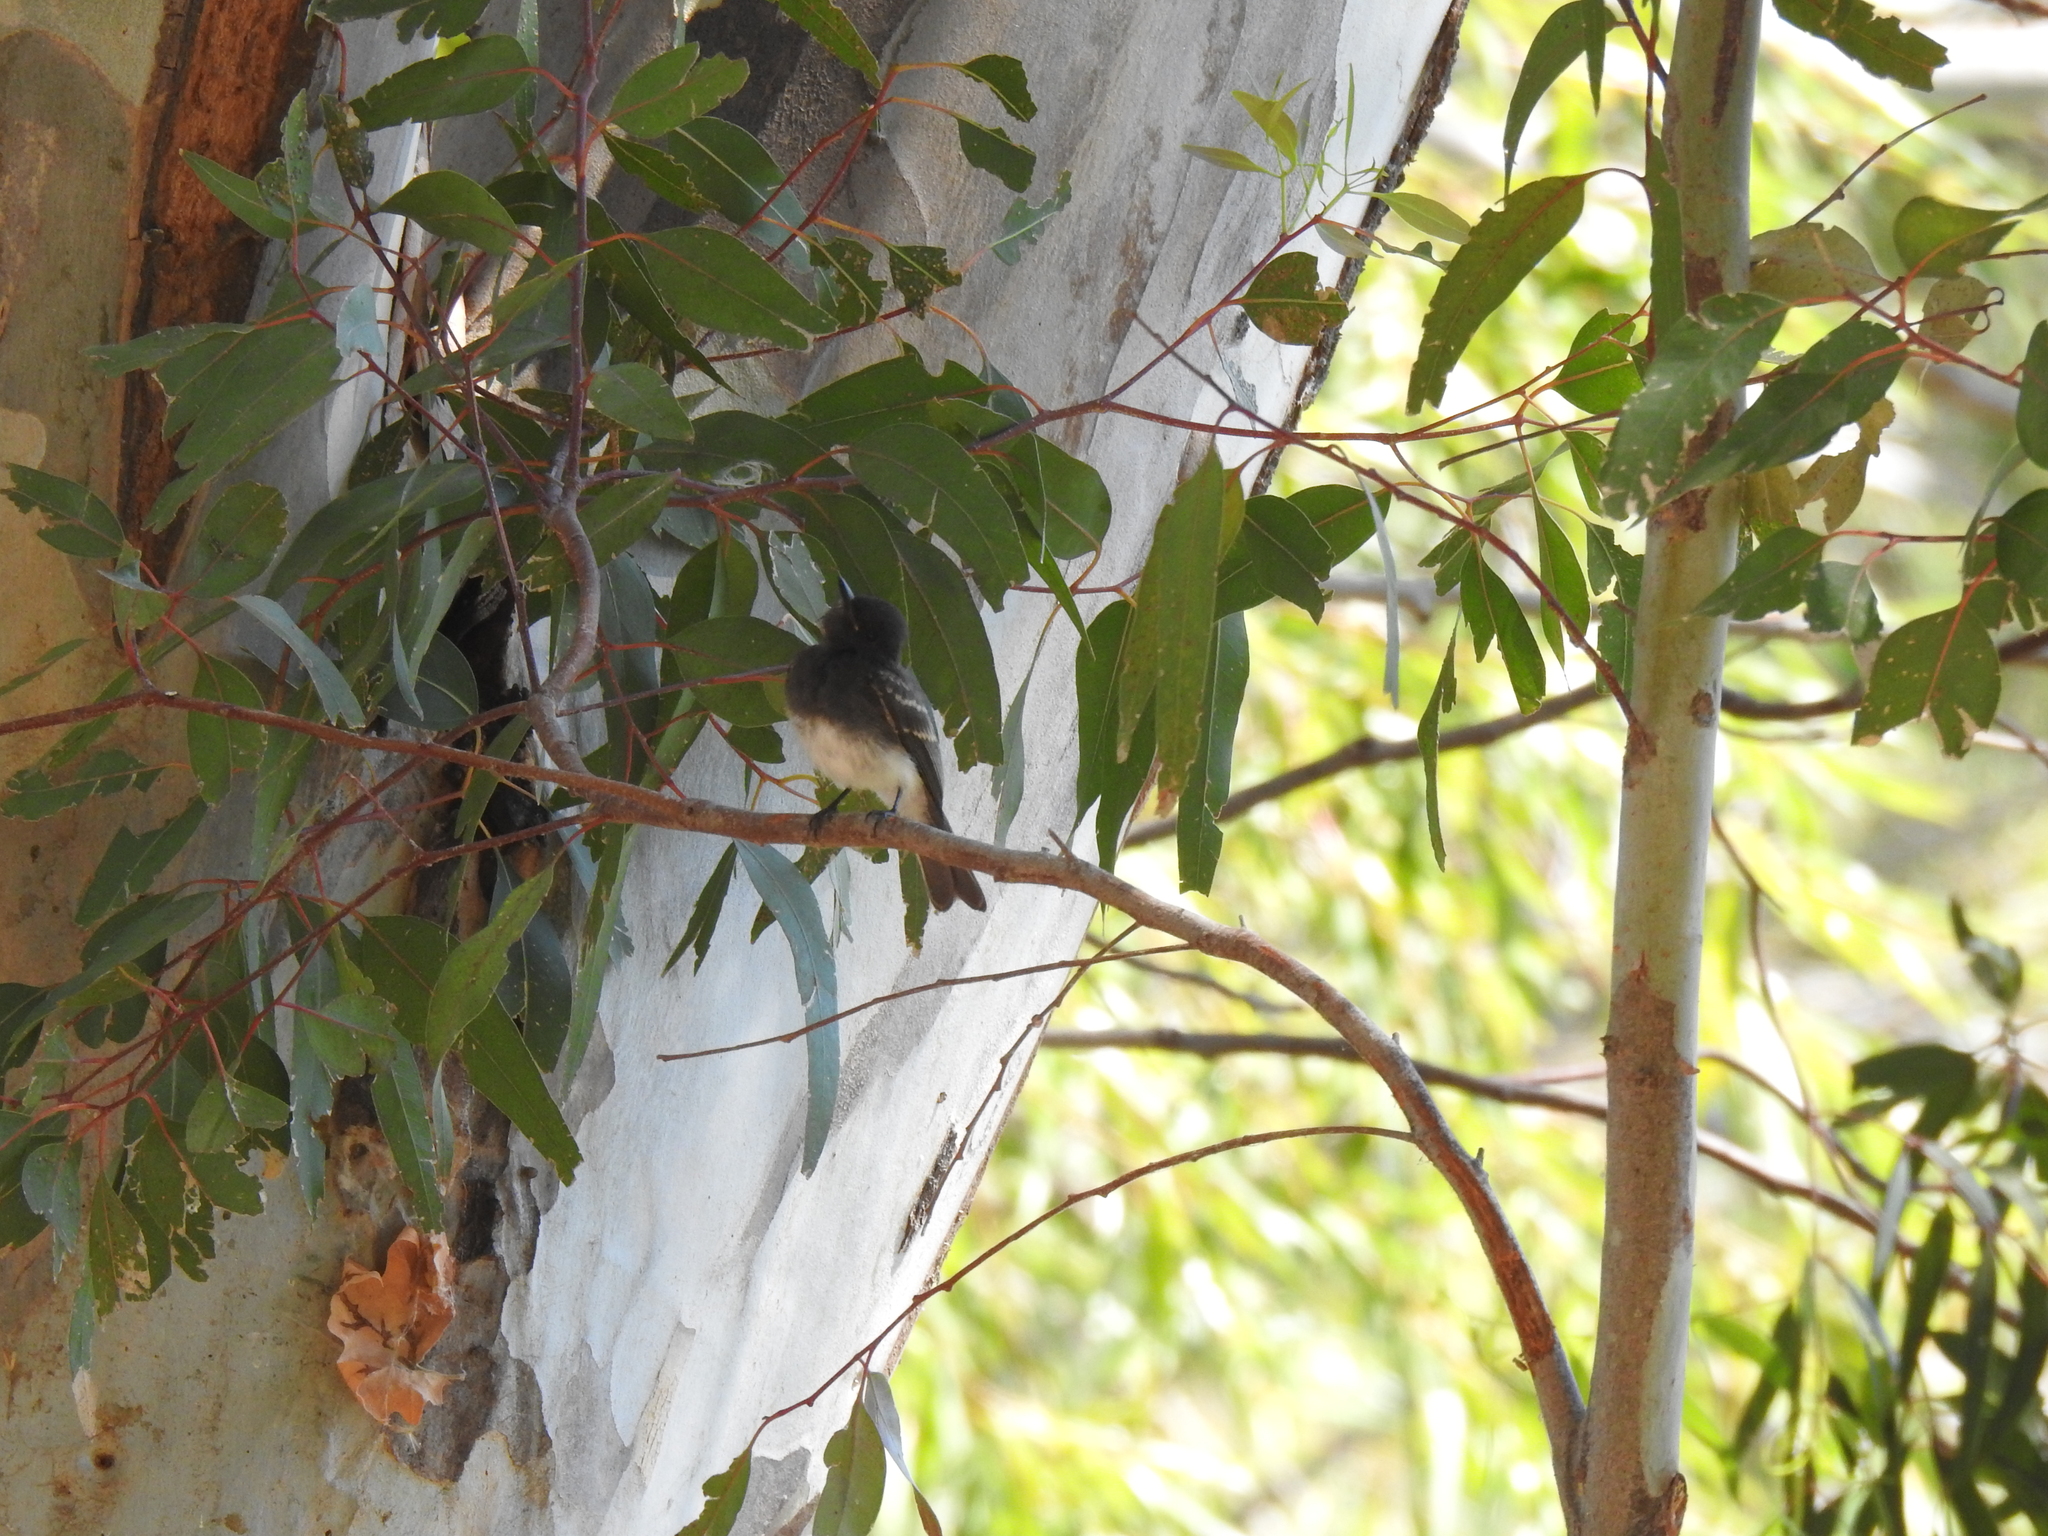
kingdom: Animalia
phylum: Chordata
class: Aves
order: Passeriformes
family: Tyrannidae
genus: Sayornis
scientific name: Sayornis nigricans
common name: Black phoebe
